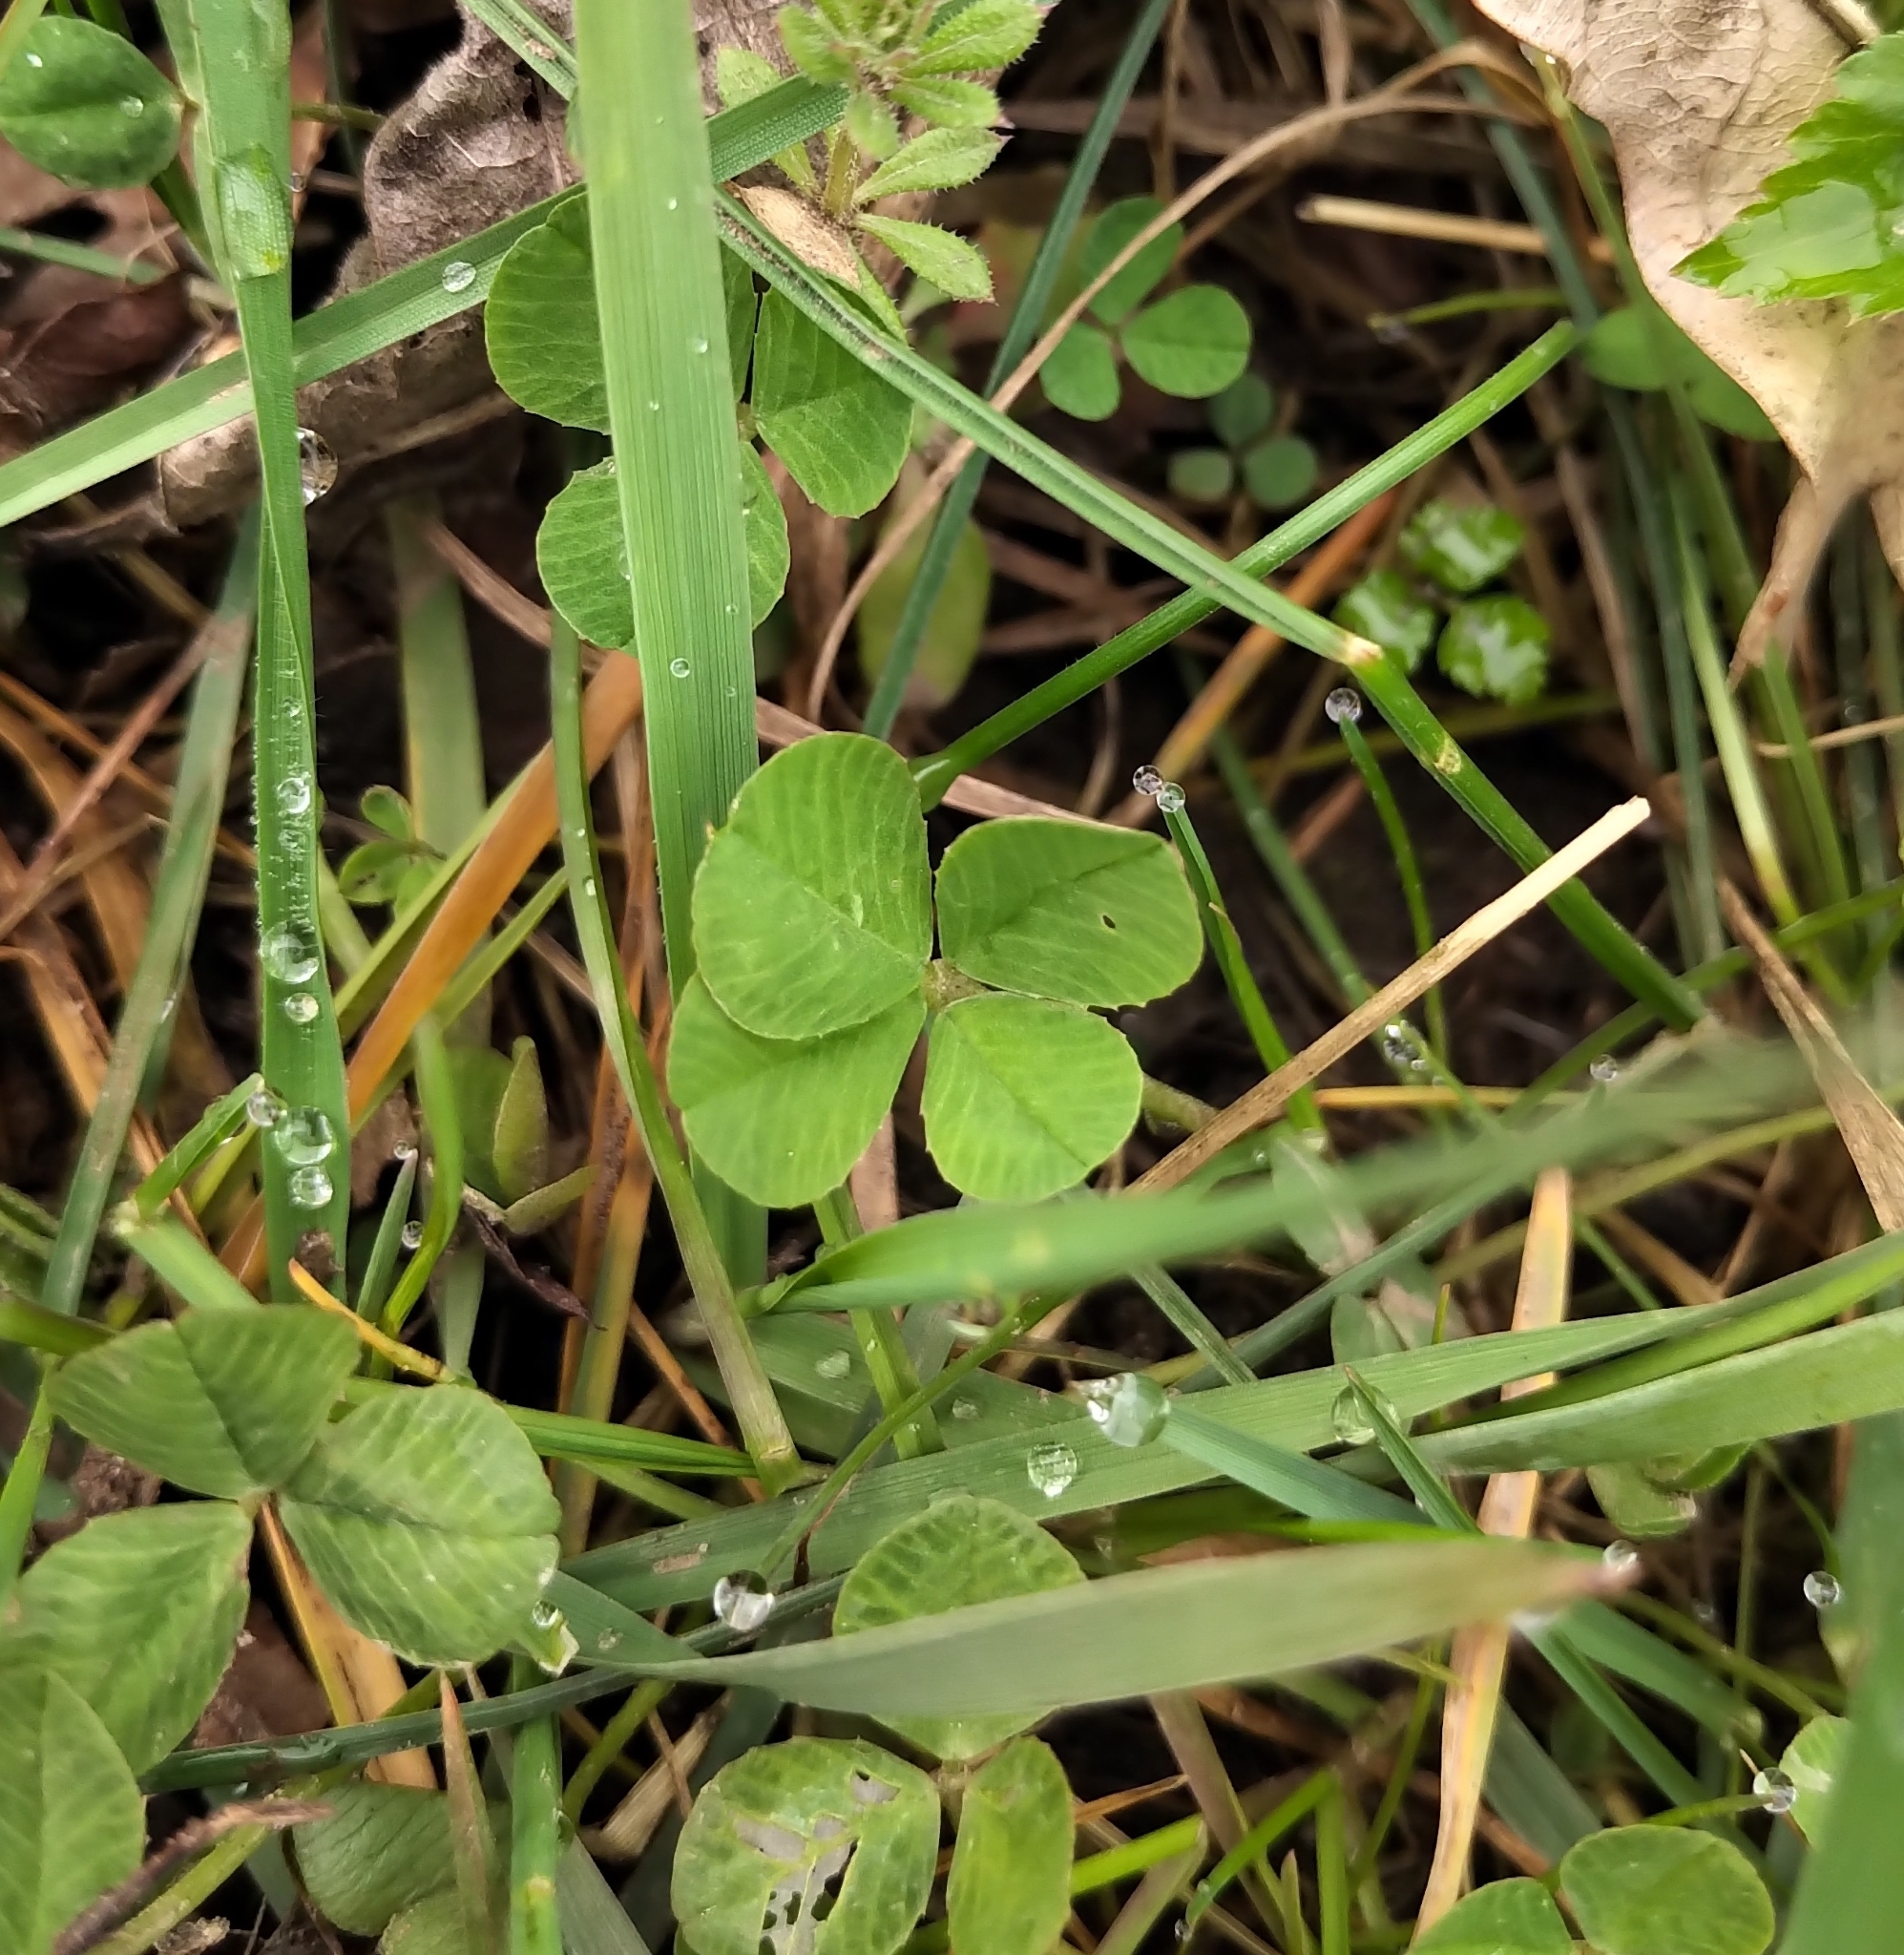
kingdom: Plantae
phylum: Tracheophyta
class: Magnoliopsida
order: Fabales
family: Fabaceae
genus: Trifolium
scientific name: Trifolium repens
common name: White clover
